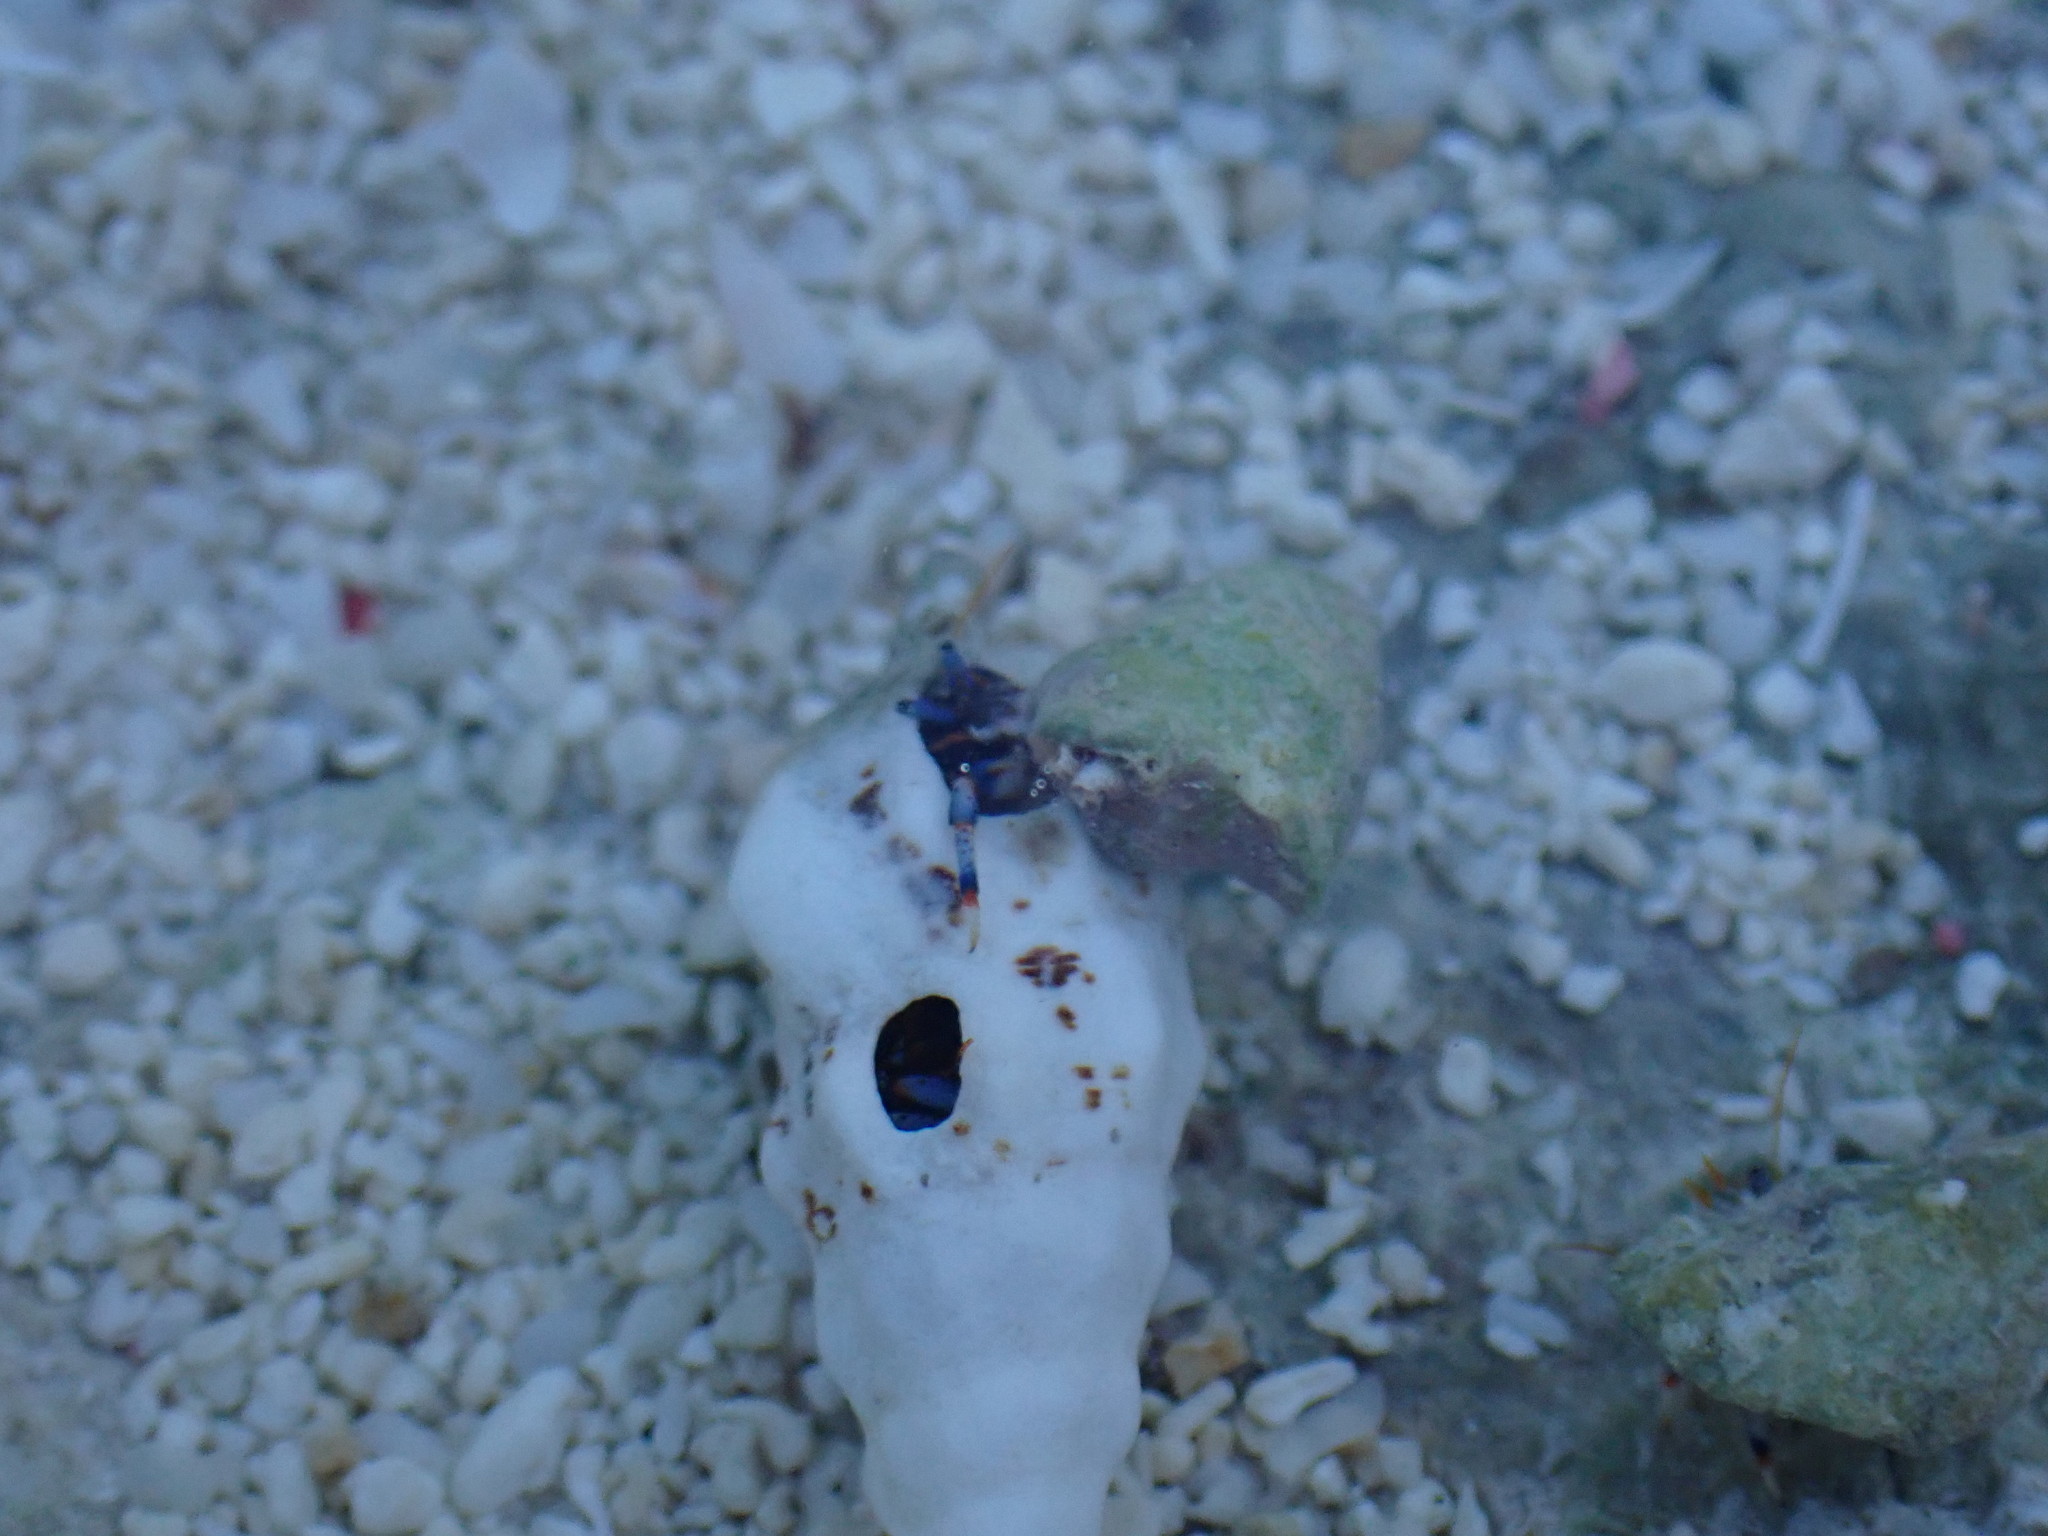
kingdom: Animalia
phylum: Arthropoda
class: Malacostraca
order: Decapoda
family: Diogenidae
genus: Clibanarius
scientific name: Clibanarius tricolor
